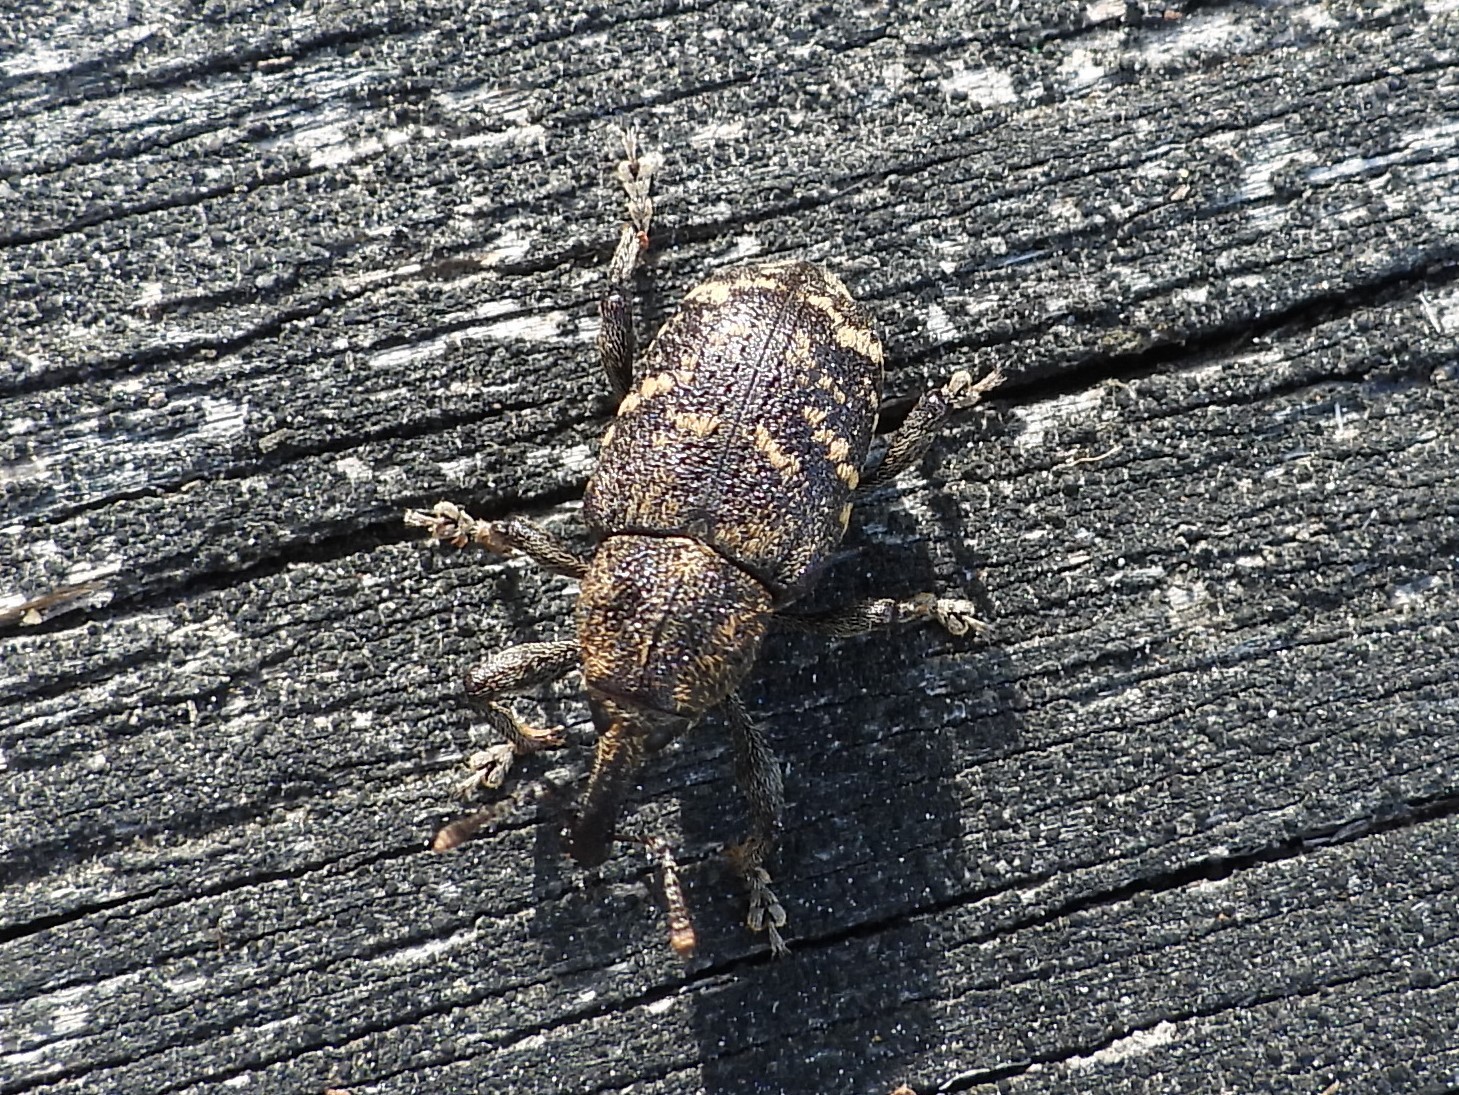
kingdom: Animalia
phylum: Arthropoda
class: Insecta
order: Coleoptera
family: Curculionidae
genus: Hylobius
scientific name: Hylobius abietis
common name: Large pine weevil
